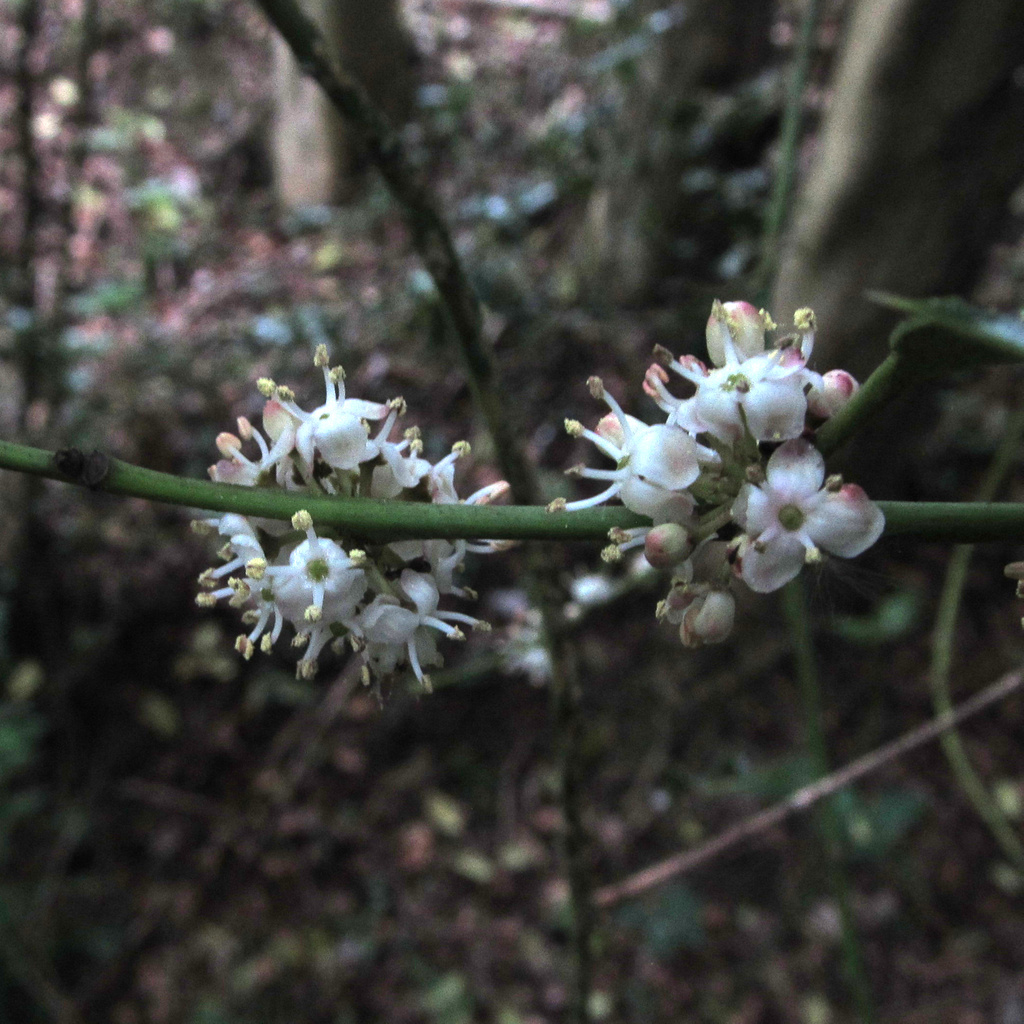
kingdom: Plantae
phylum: Tracheophyta
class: Magnoliopsida
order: Aquifoliales
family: Aquifoliaceae
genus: Ilex
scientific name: Ilex aquifolium
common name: English holly
